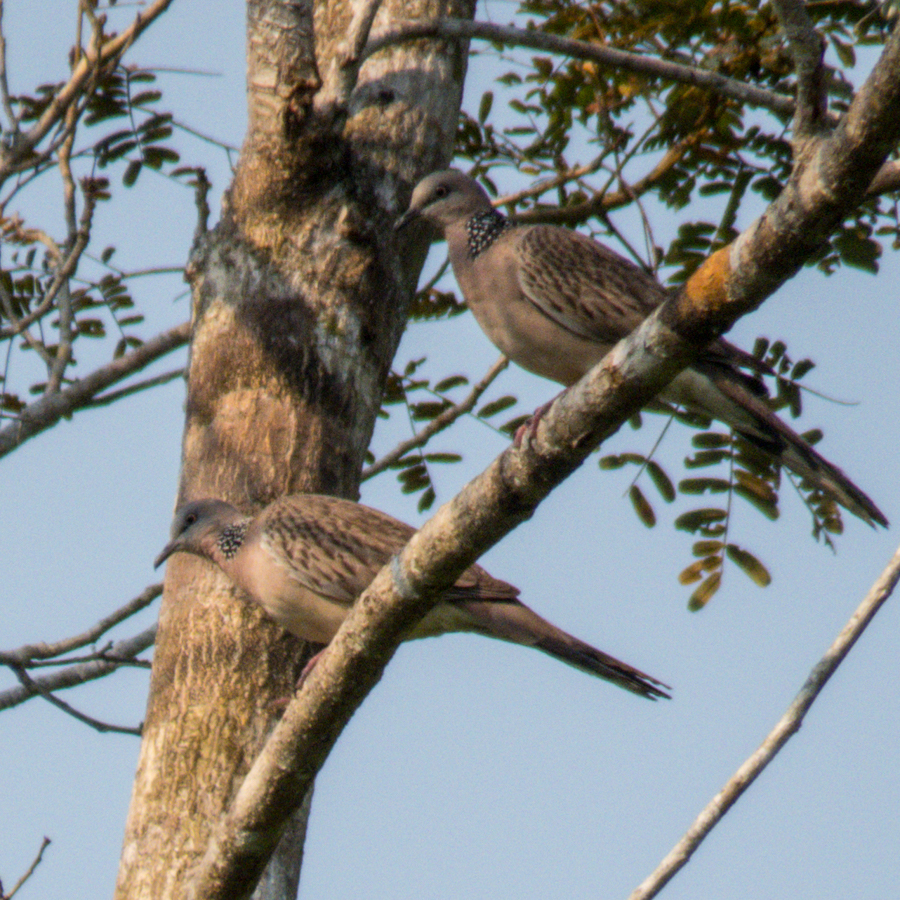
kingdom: Animalia
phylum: Chordata
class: Aves
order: Columbiformes
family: Columbidae
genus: Spilopelia
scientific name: Spilopelia chinensis
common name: Spotted dove
